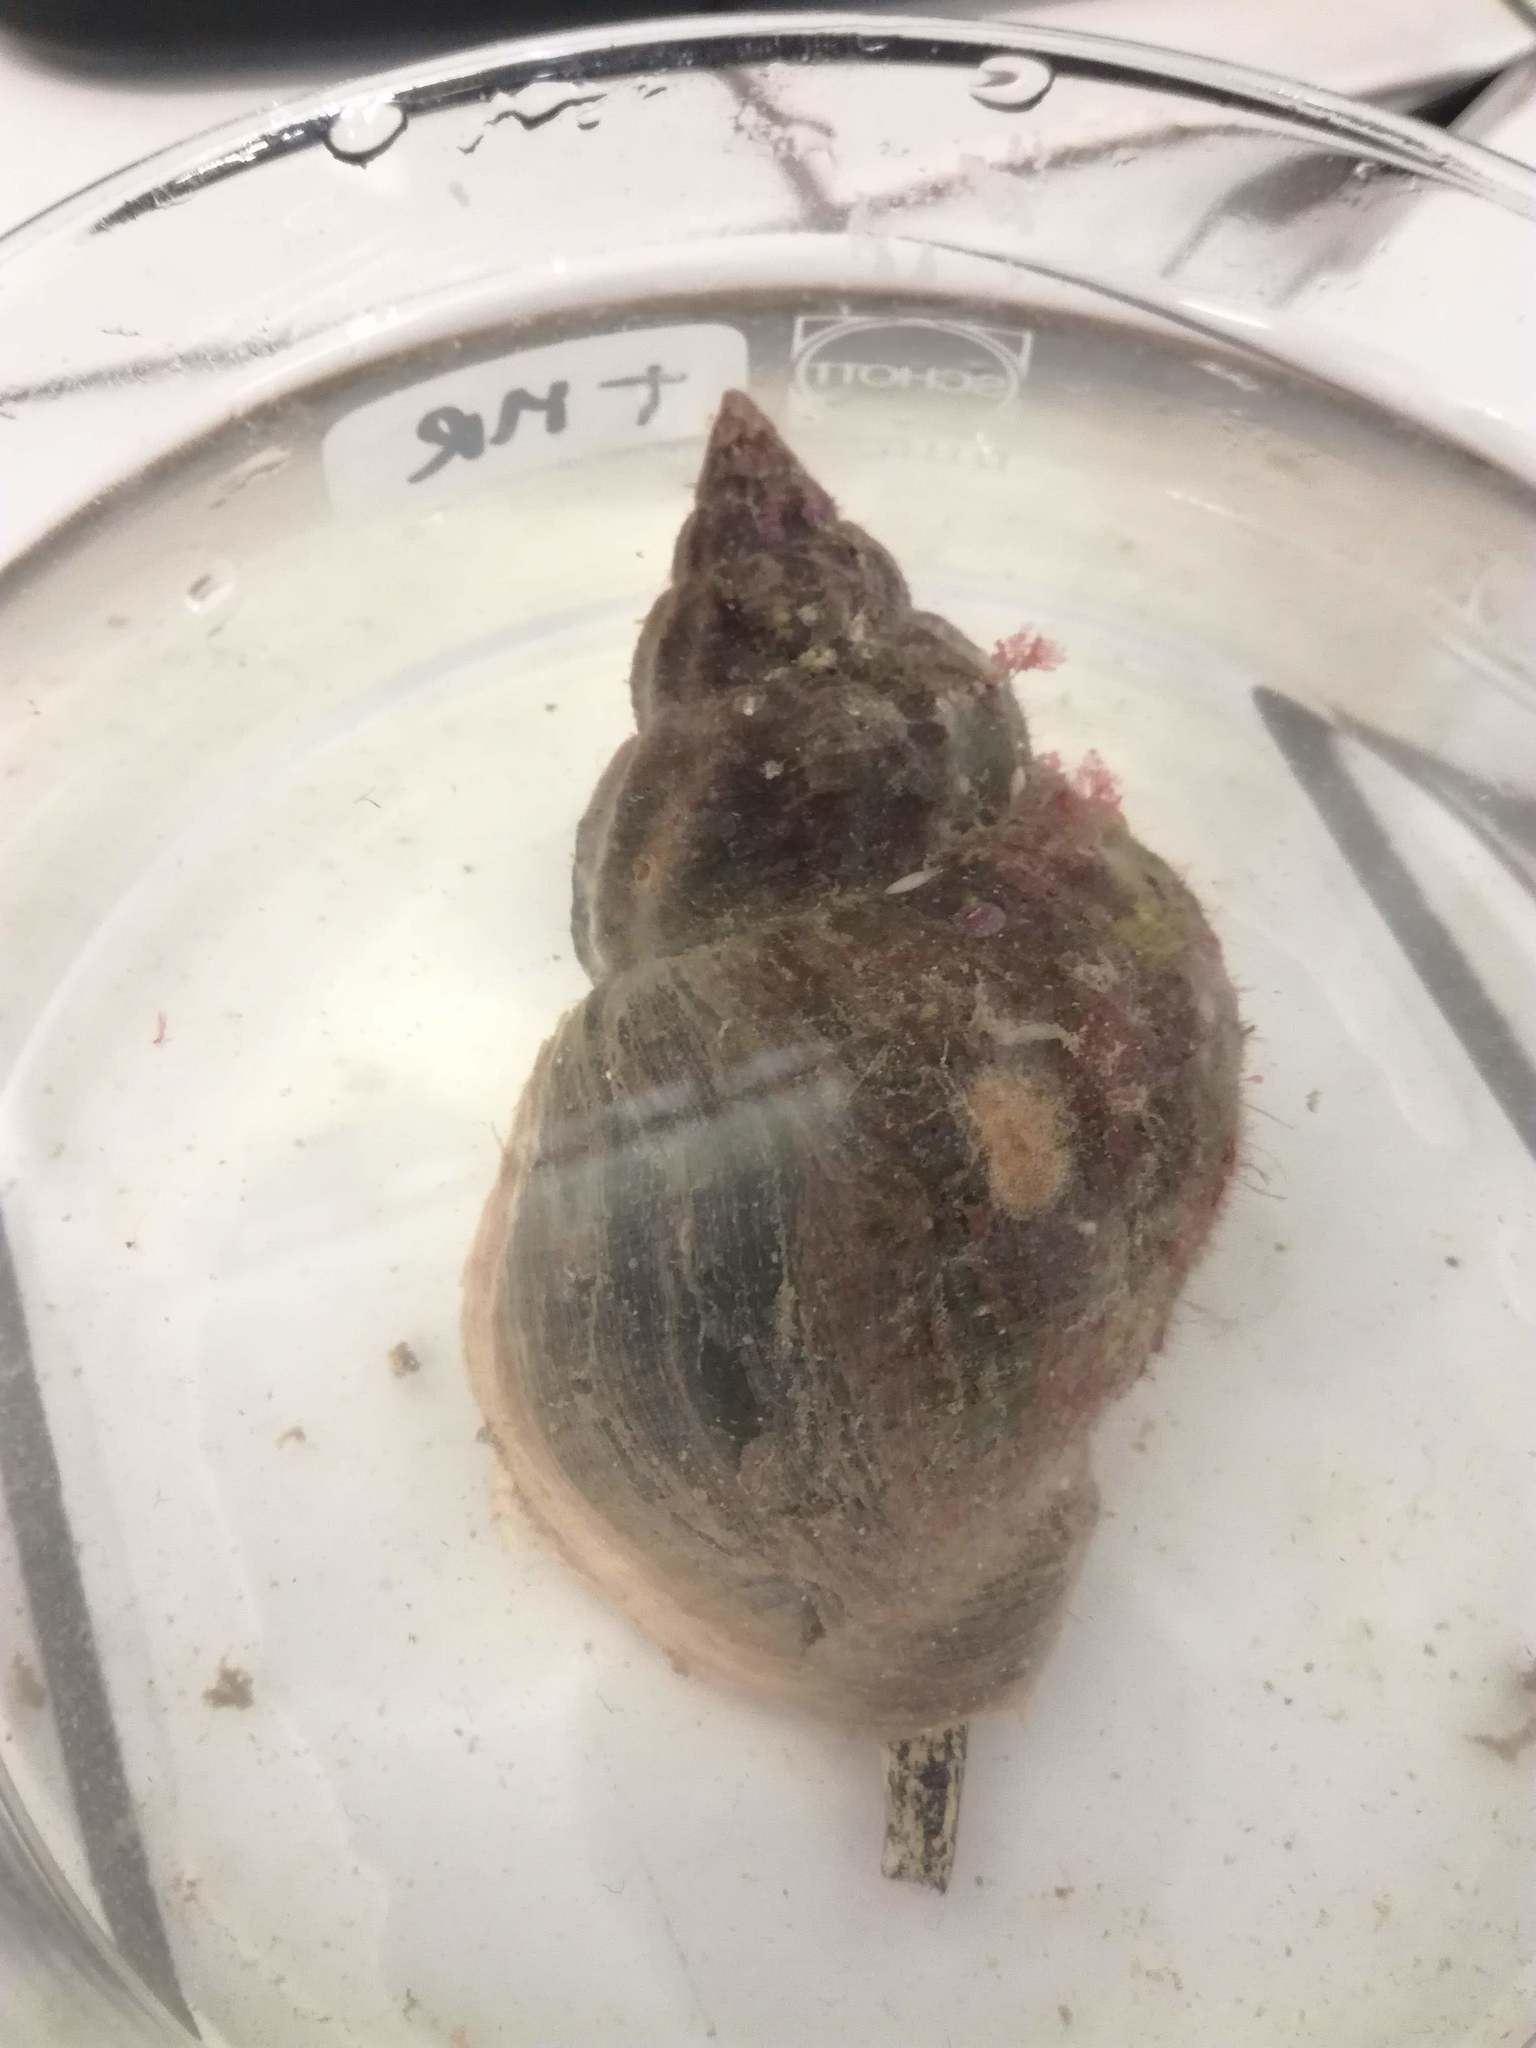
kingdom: Animalia
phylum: Mollusca
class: Gastropoda
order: Neogastropoda
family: Buccinidae
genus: Buccinum
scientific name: Buccinum undatum
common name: Common whelk
